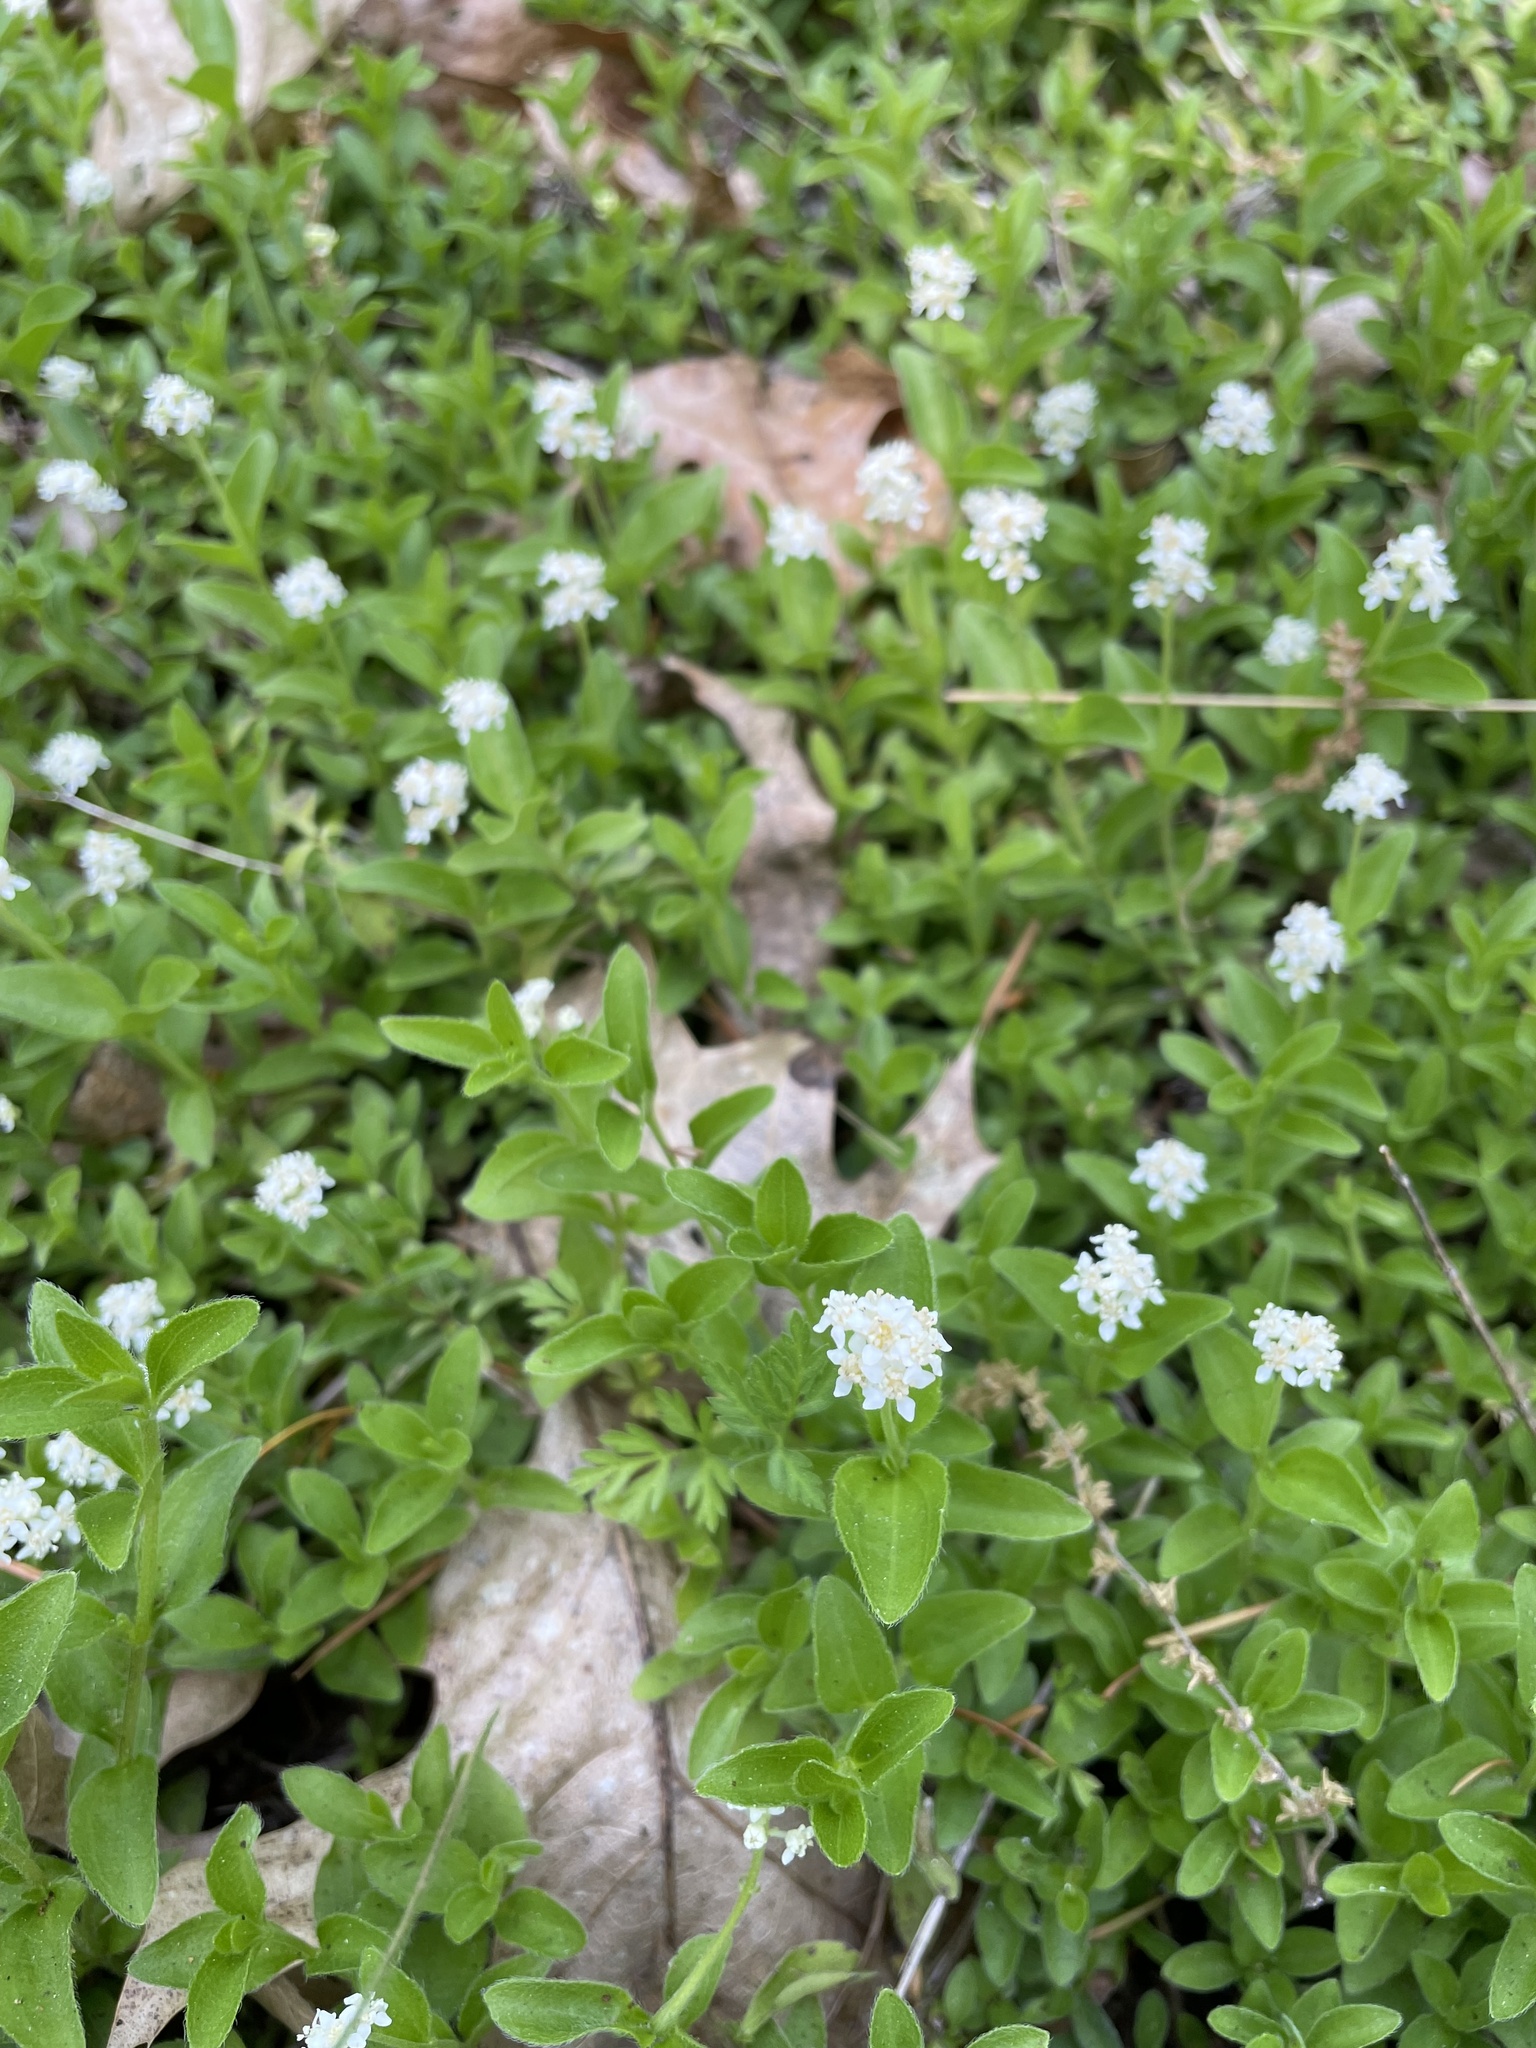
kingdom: Plantae
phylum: Tracheophyta
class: Magnoliopsida
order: Cornales
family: Hydrangeaceae
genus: Whipplea
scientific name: Whipplea modesta
